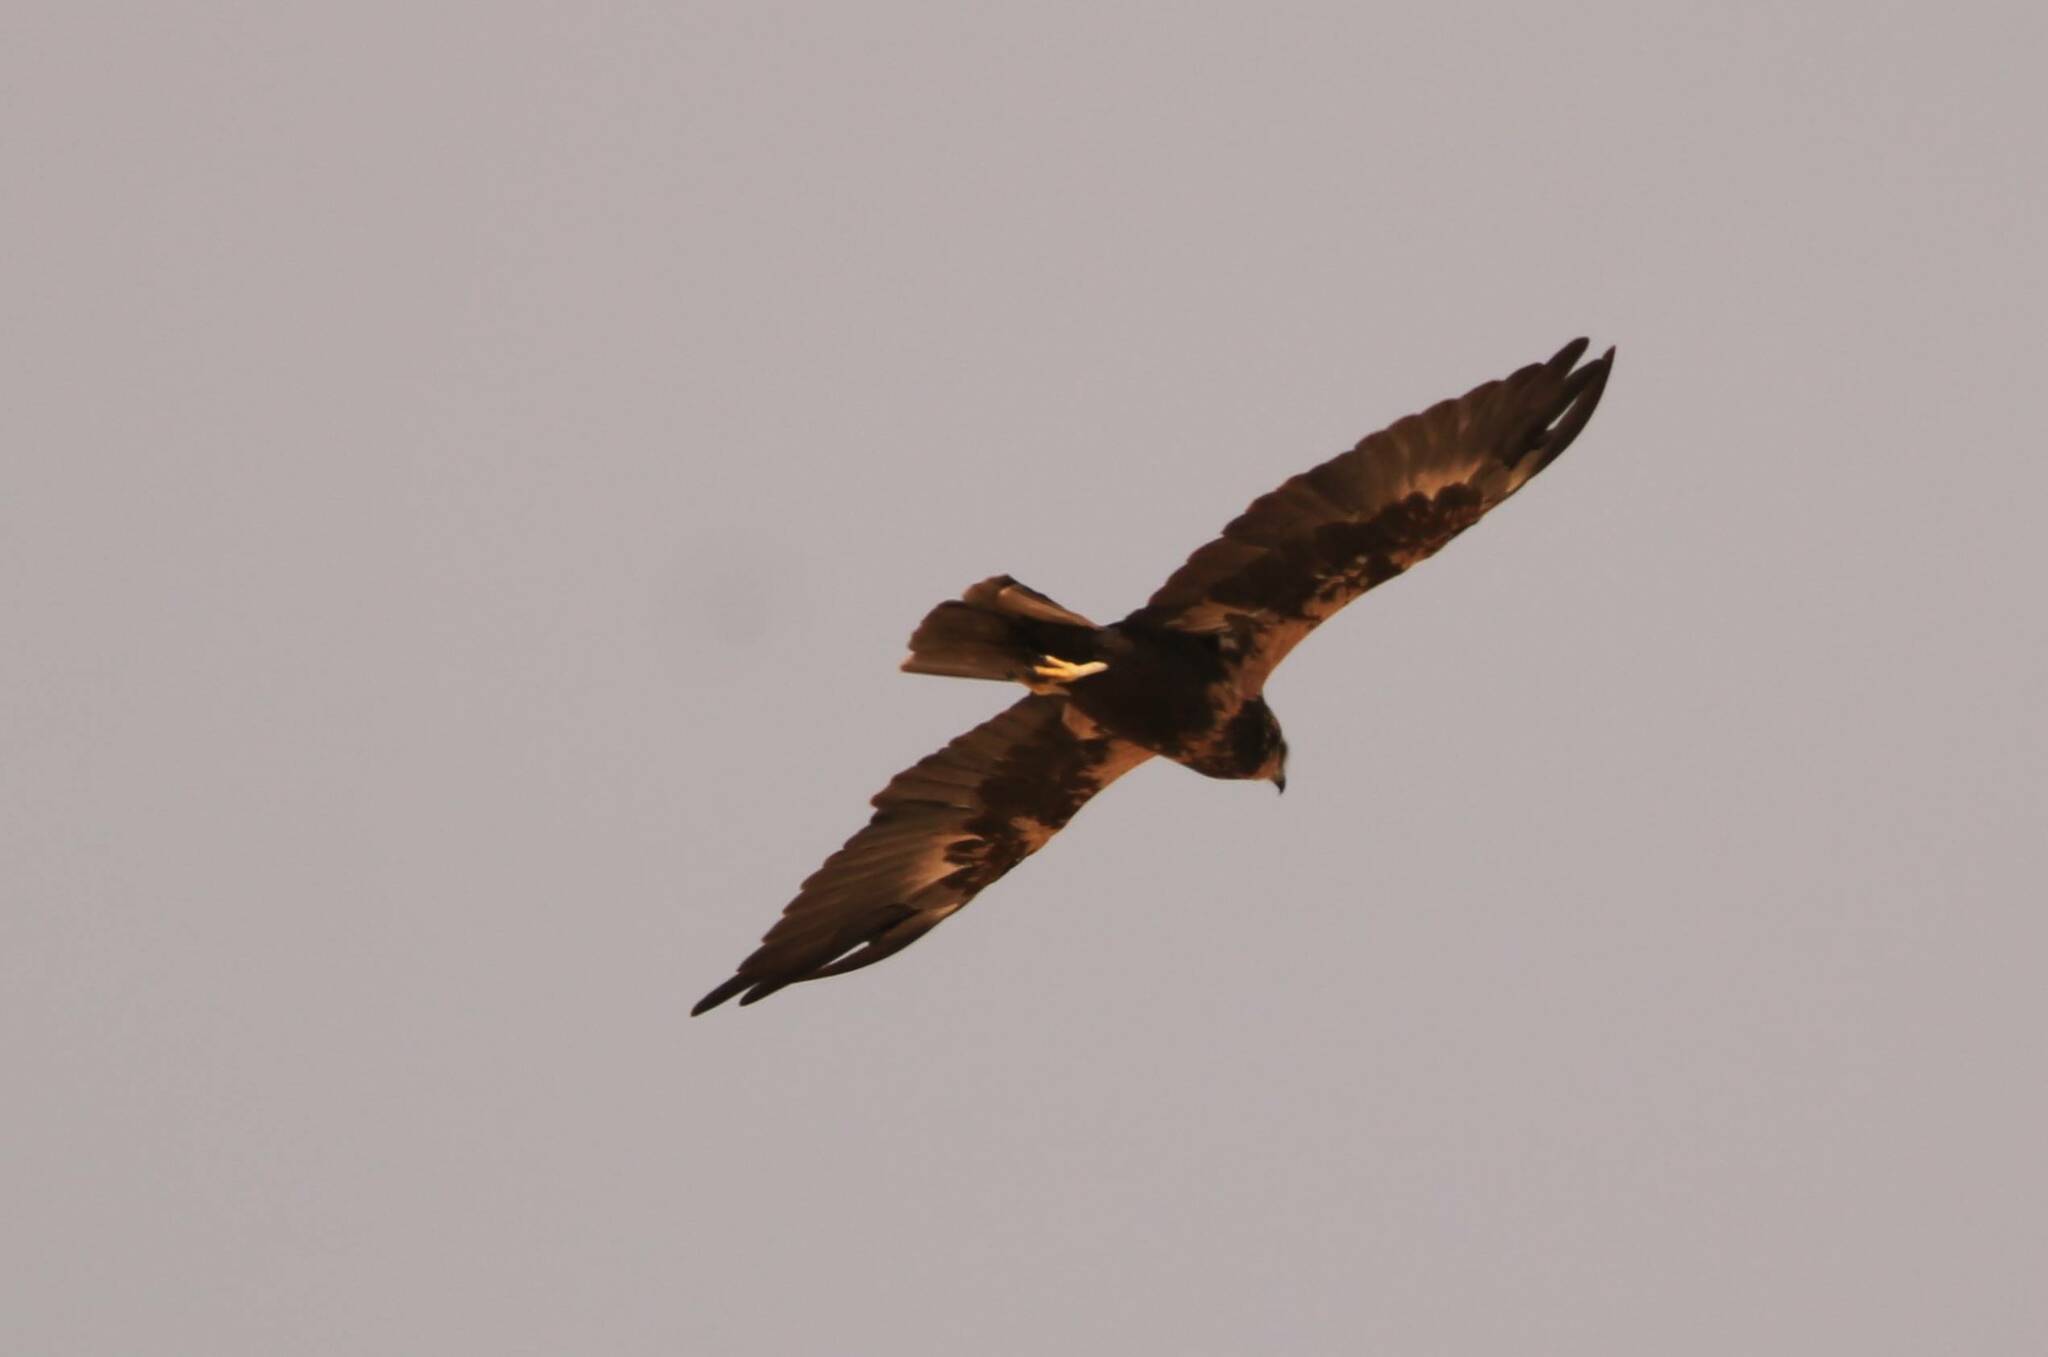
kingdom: Animalia
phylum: Chordata
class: Aves
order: Accipitriformes
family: Accipitridae
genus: Circus
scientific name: Circus aeruginosus
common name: Western marsh harrier
